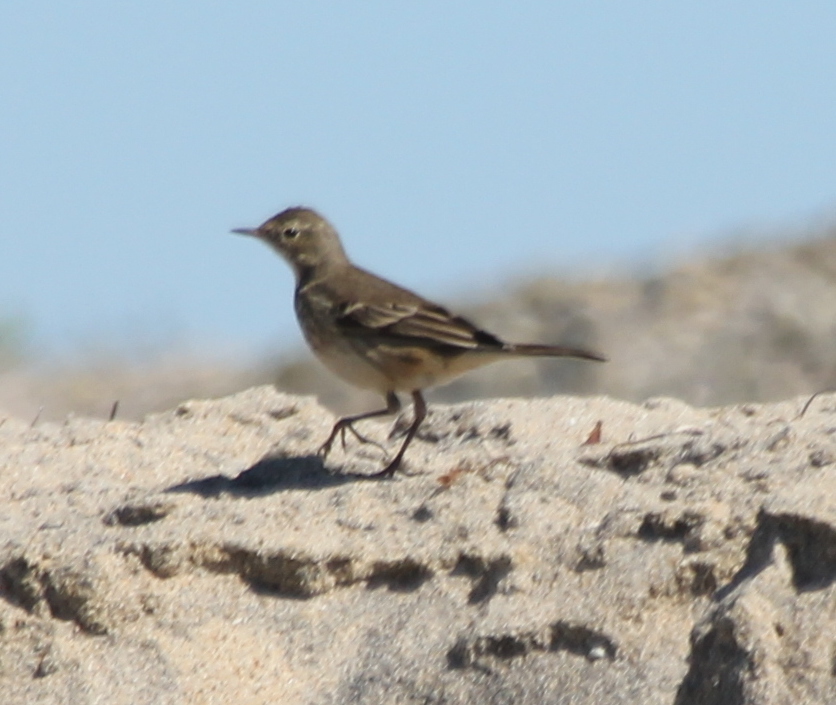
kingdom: Animalia
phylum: Chordata
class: Aves
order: Passeriformes
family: Motacillidae
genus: Anthus
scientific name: Anthus rubescens
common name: Buff-bellied pipit
